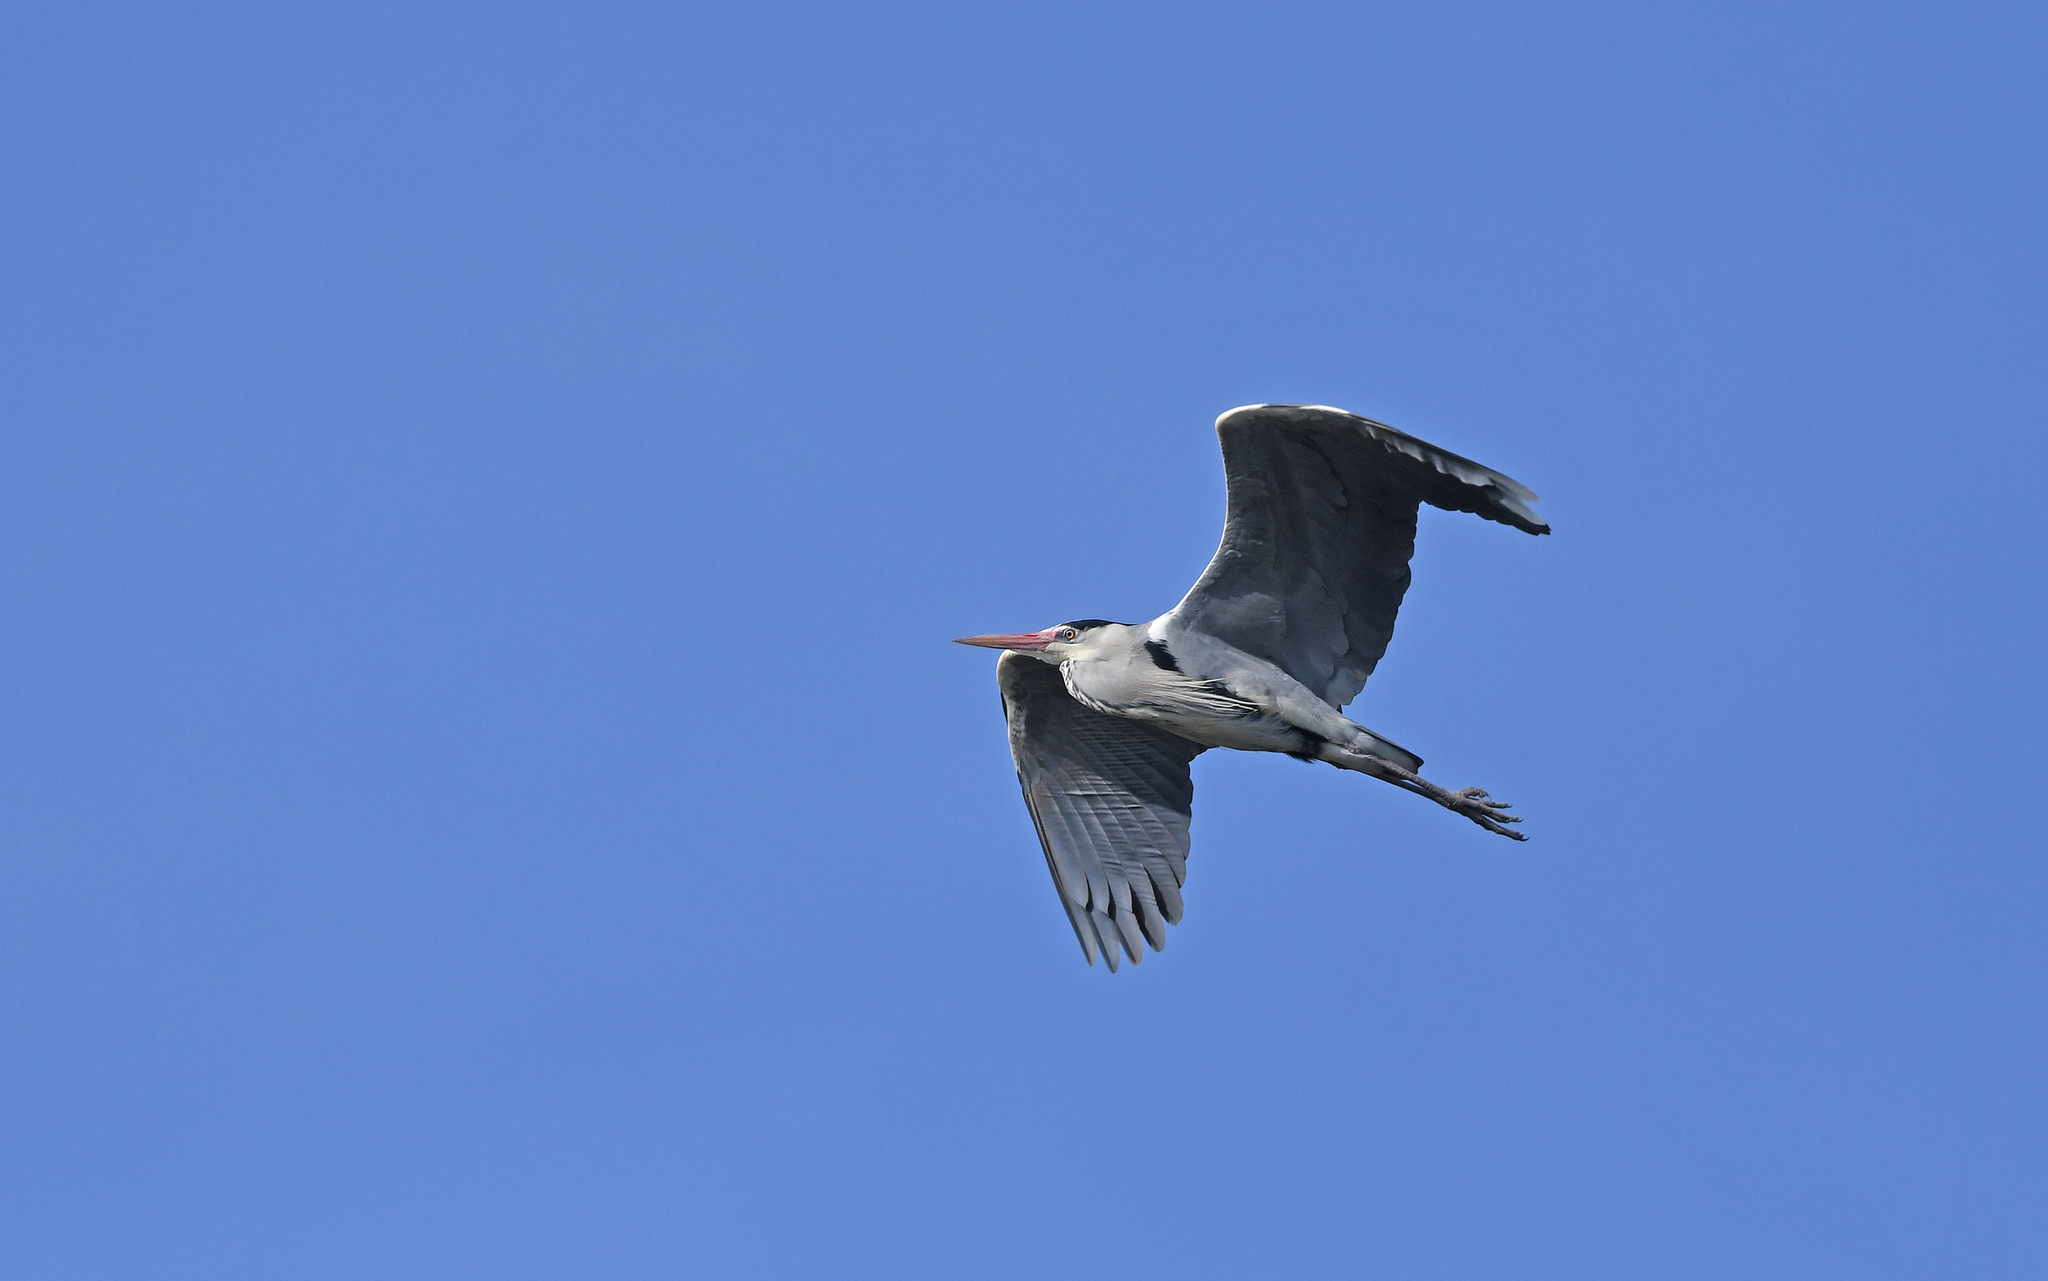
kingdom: Animalia
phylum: Chordata
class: Aves
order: Pelecaniformes
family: Ardeidae
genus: Ardea
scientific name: Ardea cinerea
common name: Grey heron
